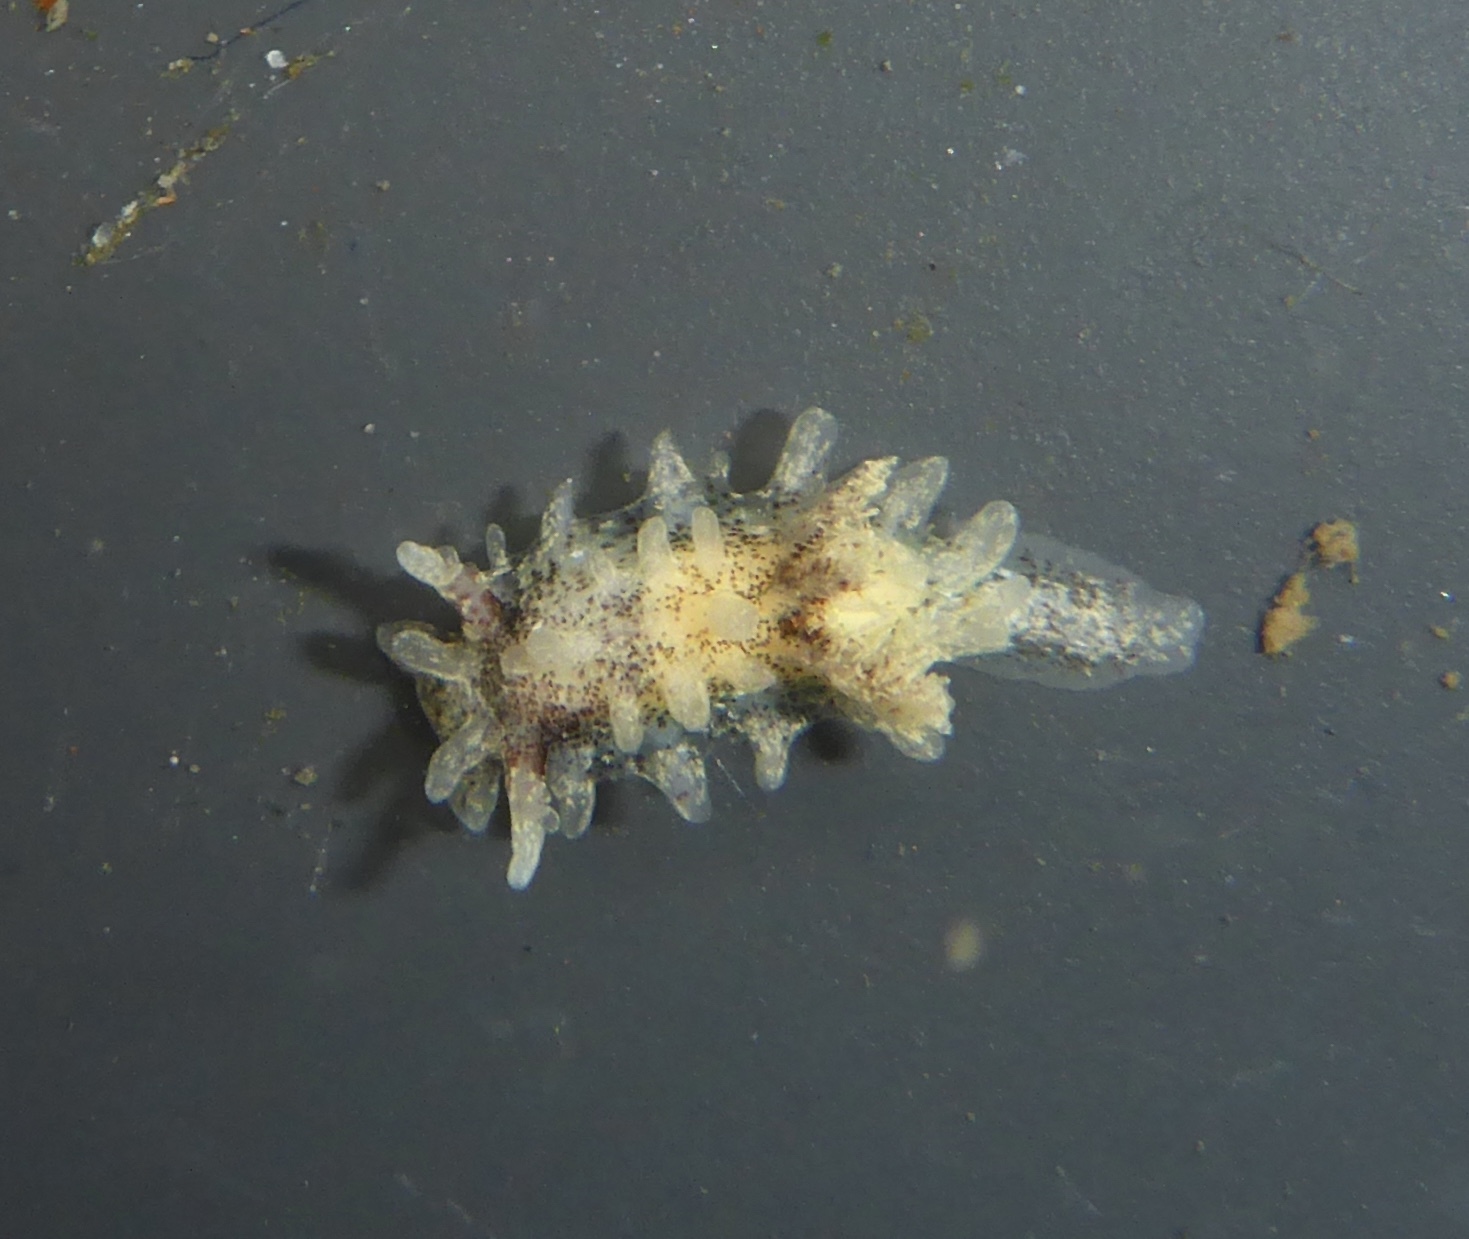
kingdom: Animalia
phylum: Mollusca
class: Gastropoda
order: Nudibranchia
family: Goniodorididae
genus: Okenia
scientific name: Okenia
